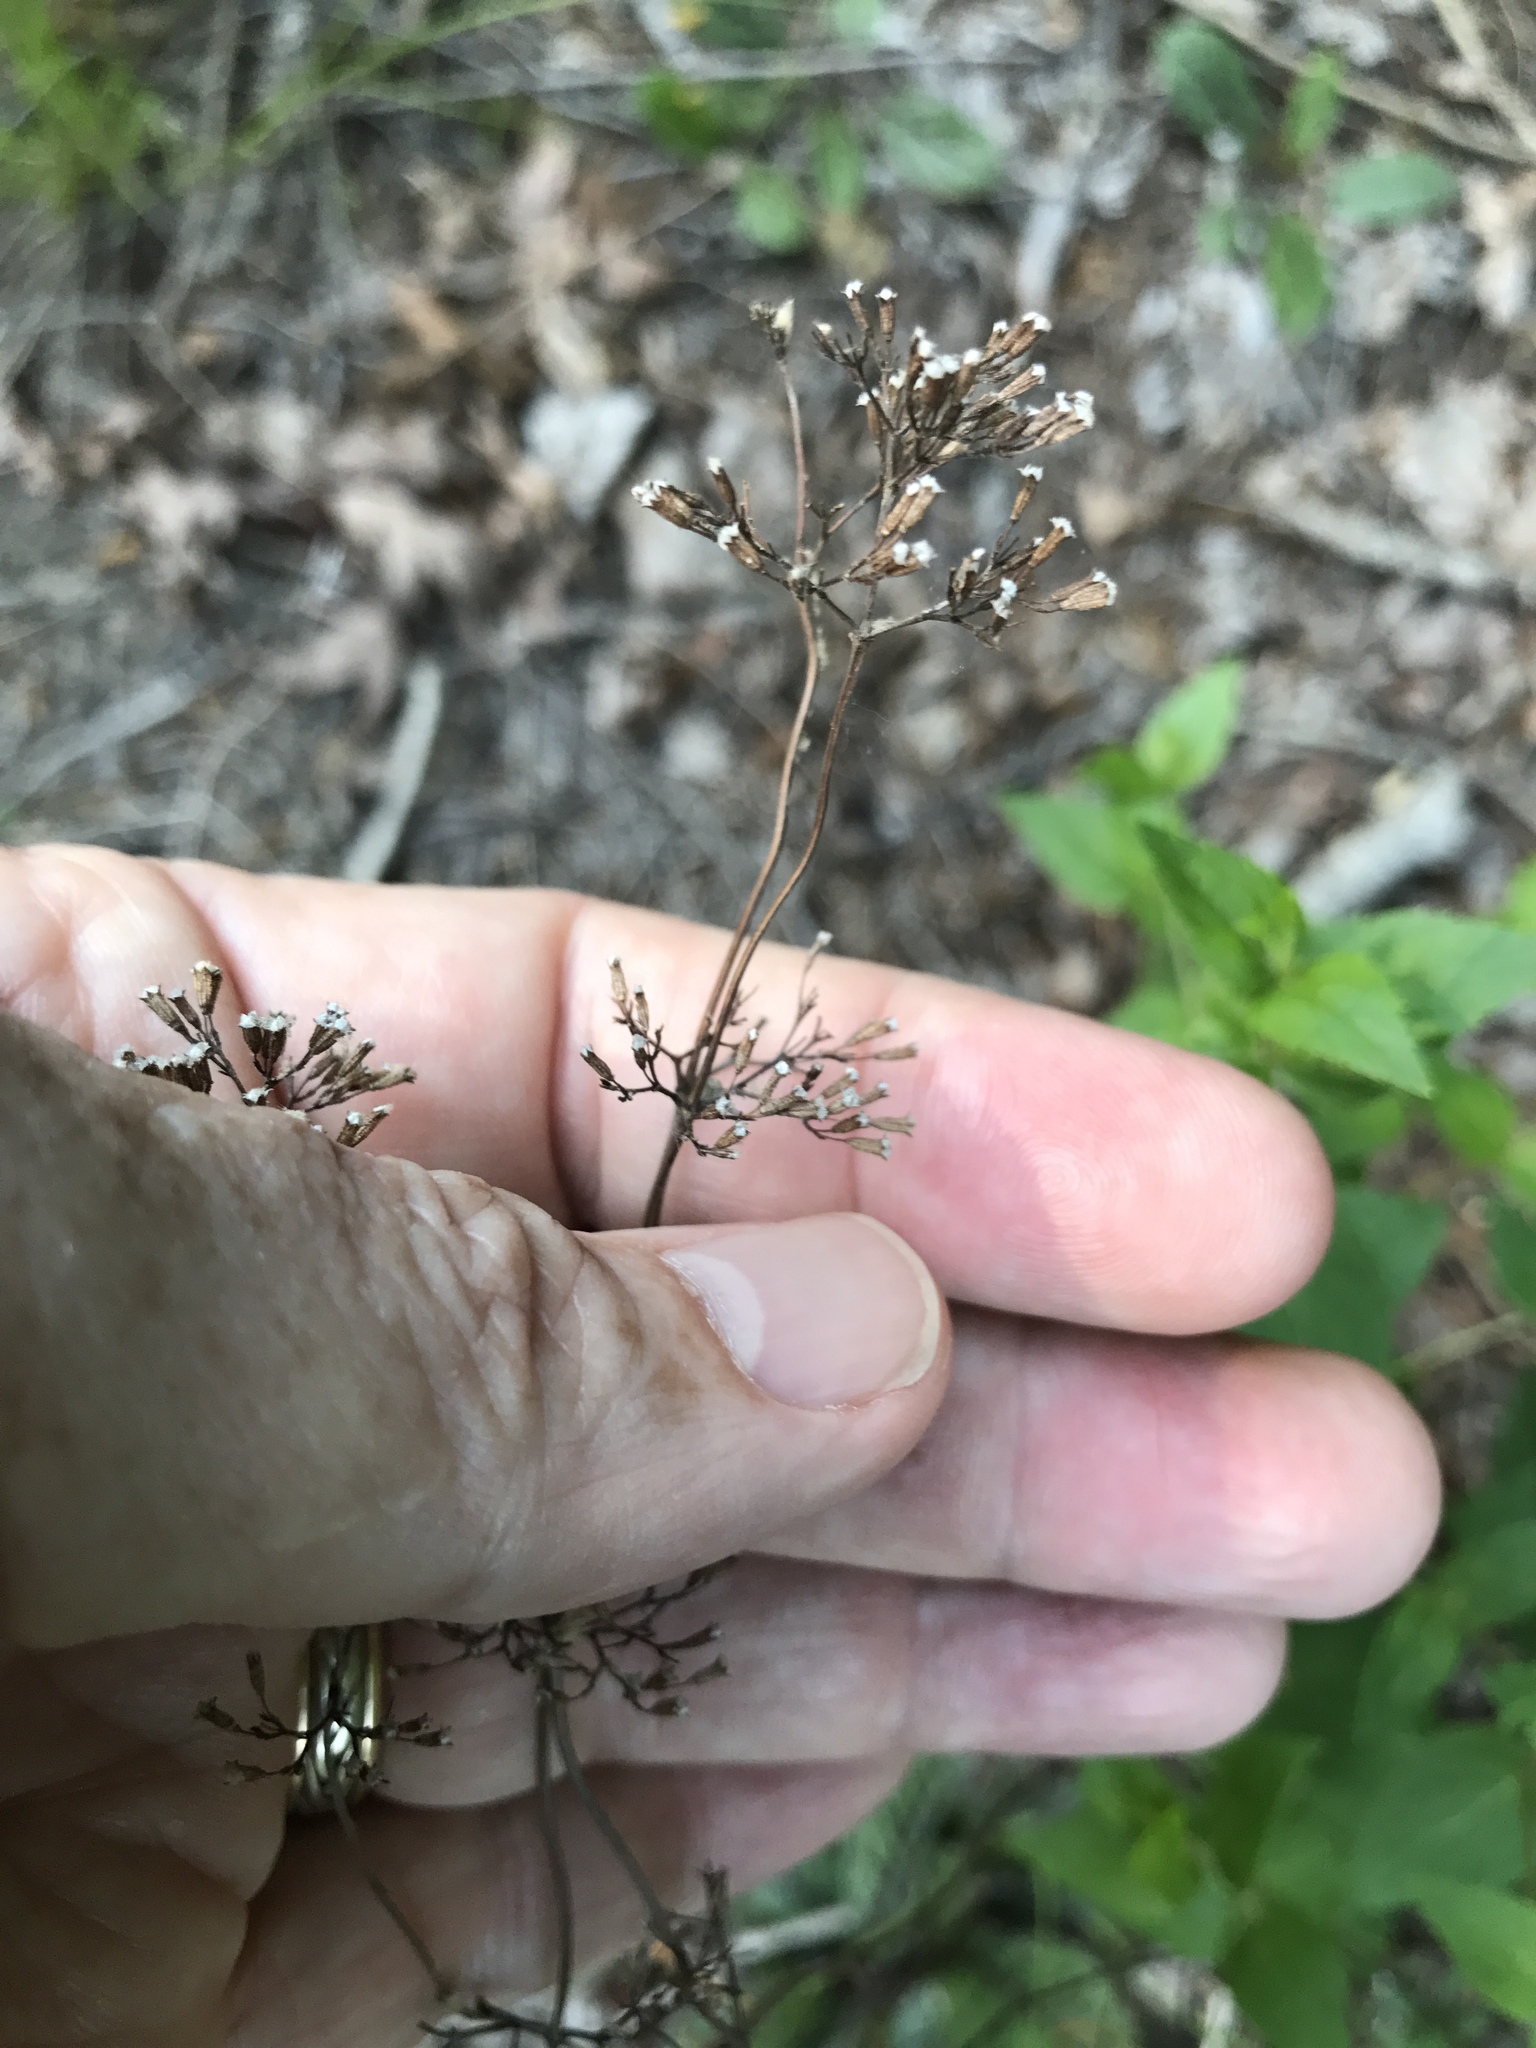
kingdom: Plantae
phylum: Tracheophyta
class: Magnoliopsida
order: Lamiales
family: Lamiaceae
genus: Cunila
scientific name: Cunila origanoides
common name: American dittany
